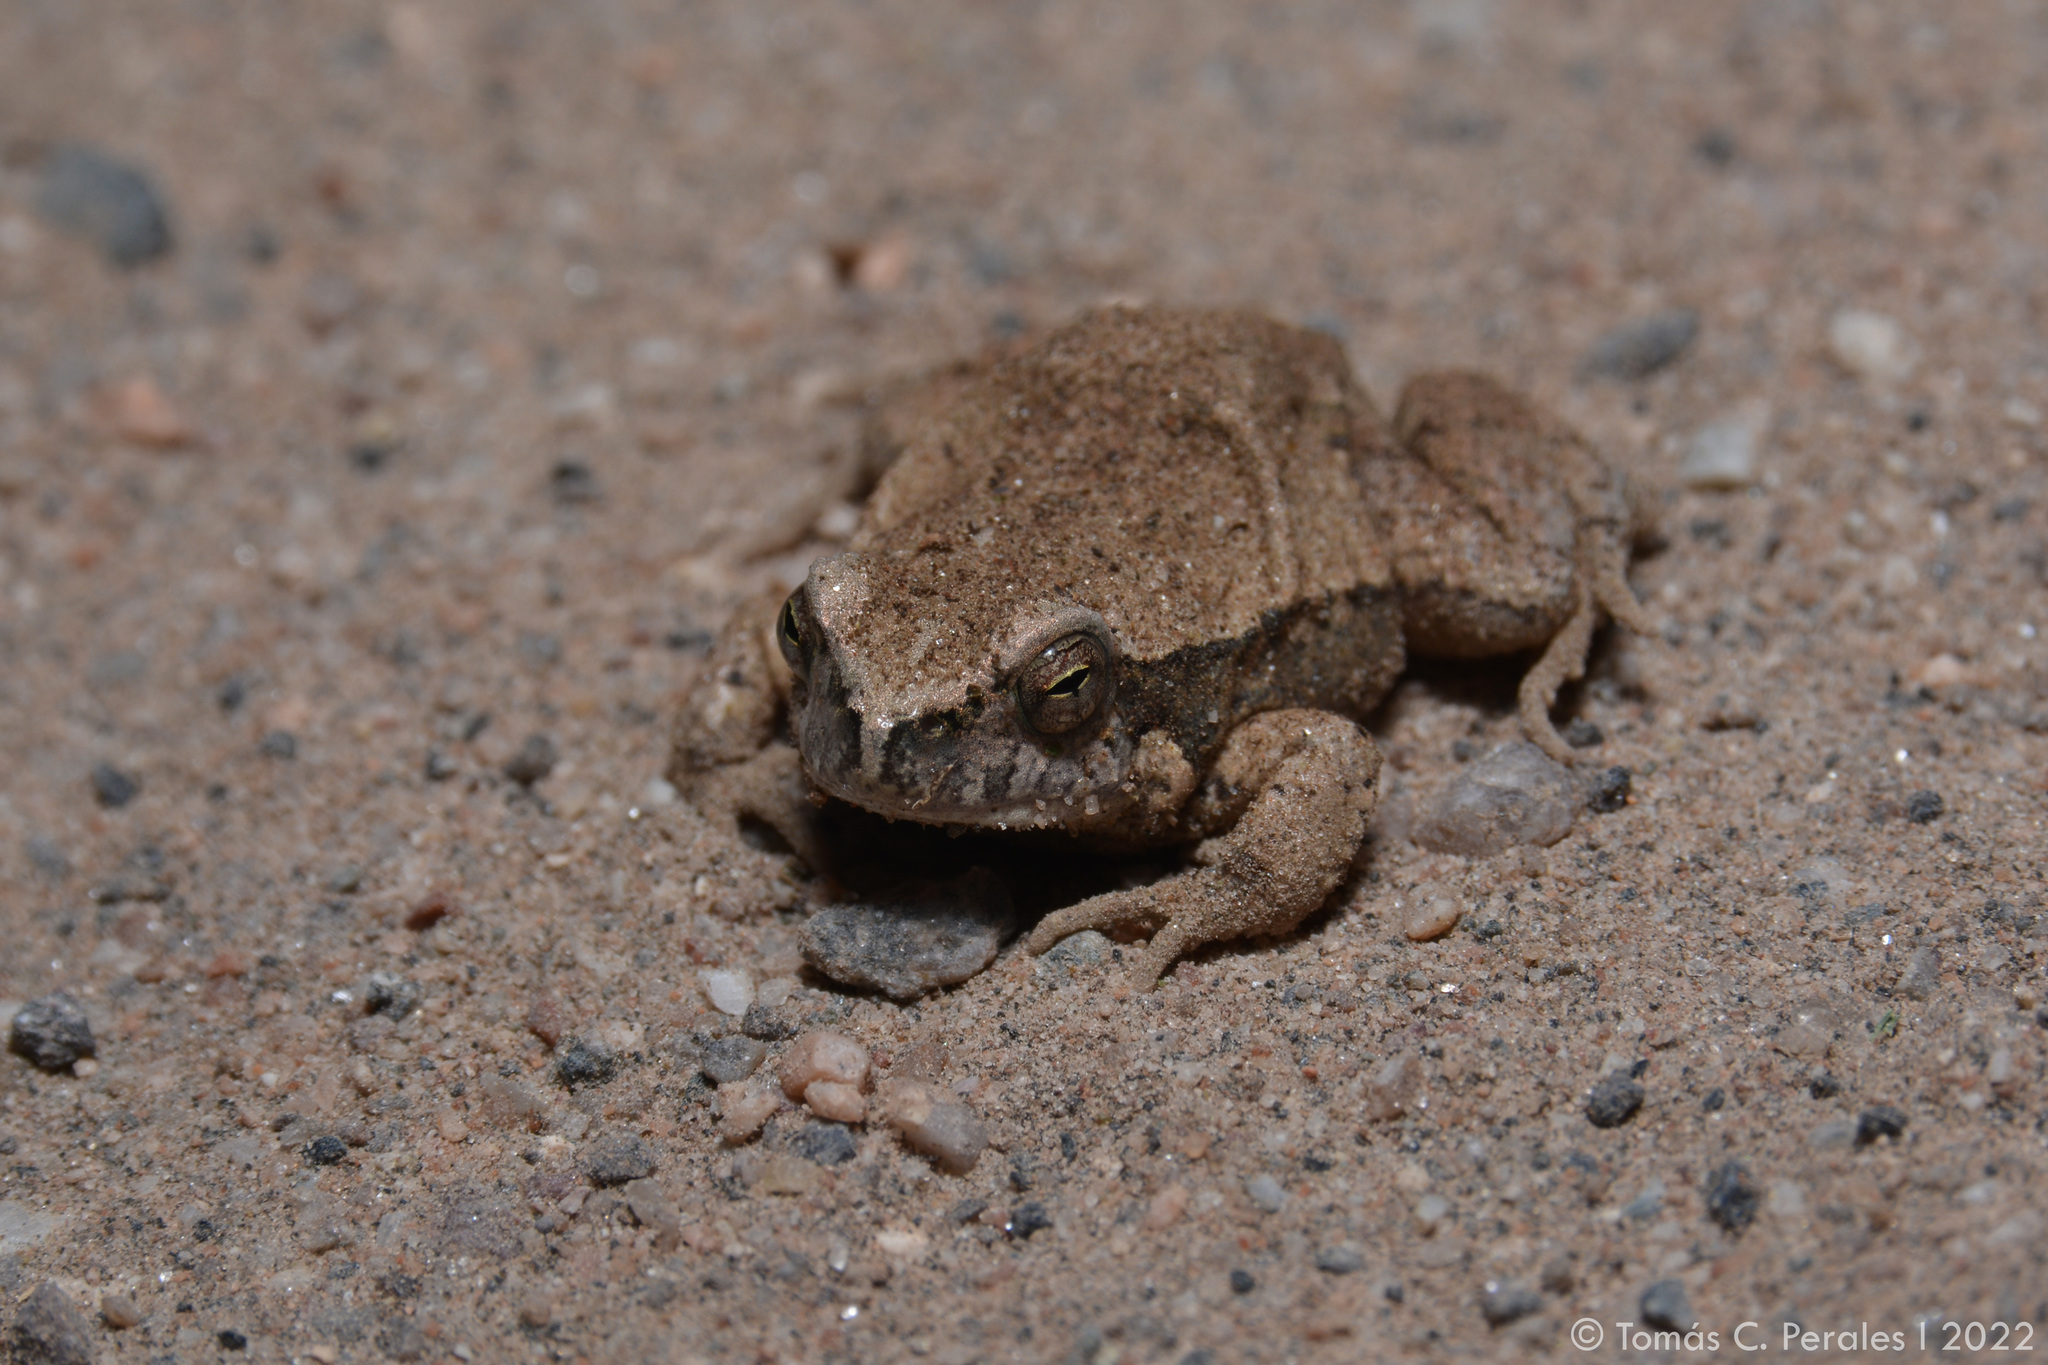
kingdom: Animalia
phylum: Chordata
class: Amphibia
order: Anura
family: Leptodactylidae
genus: Physalaemus
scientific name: Physalaemus biligonigerus
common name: Weeping frog
